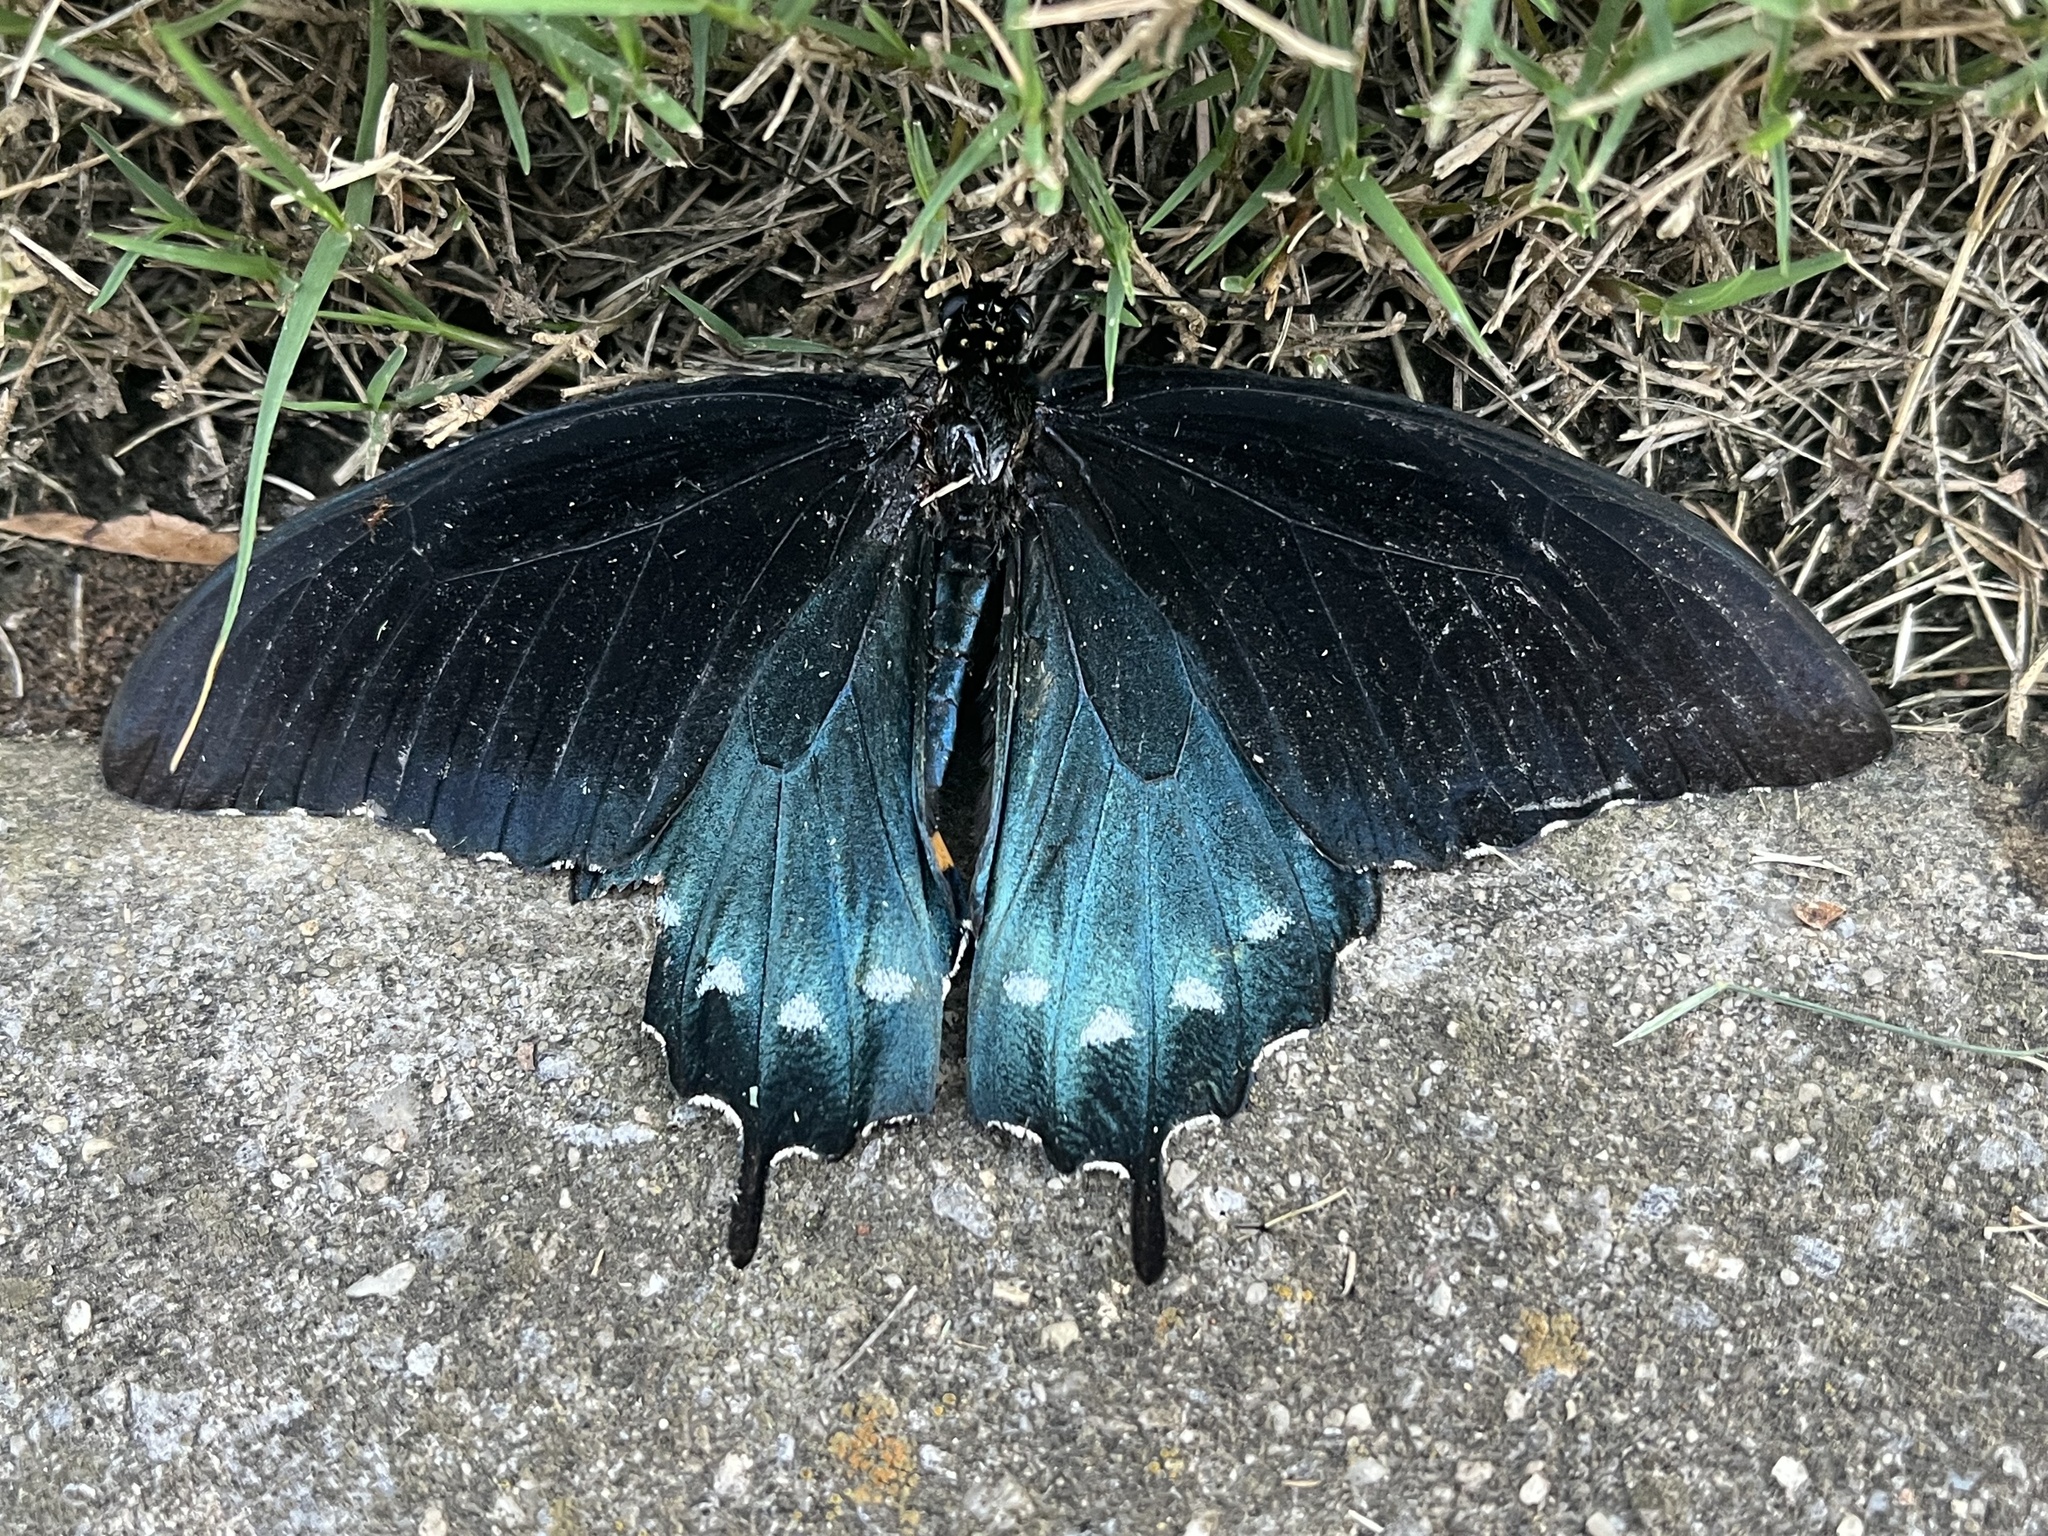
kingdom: Animalia
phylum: Arthropoda
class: Insecta
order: Lepidoptera
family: Papilionidae
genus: Battus
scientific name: Battus philenor
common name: Pipevine swallowtail
